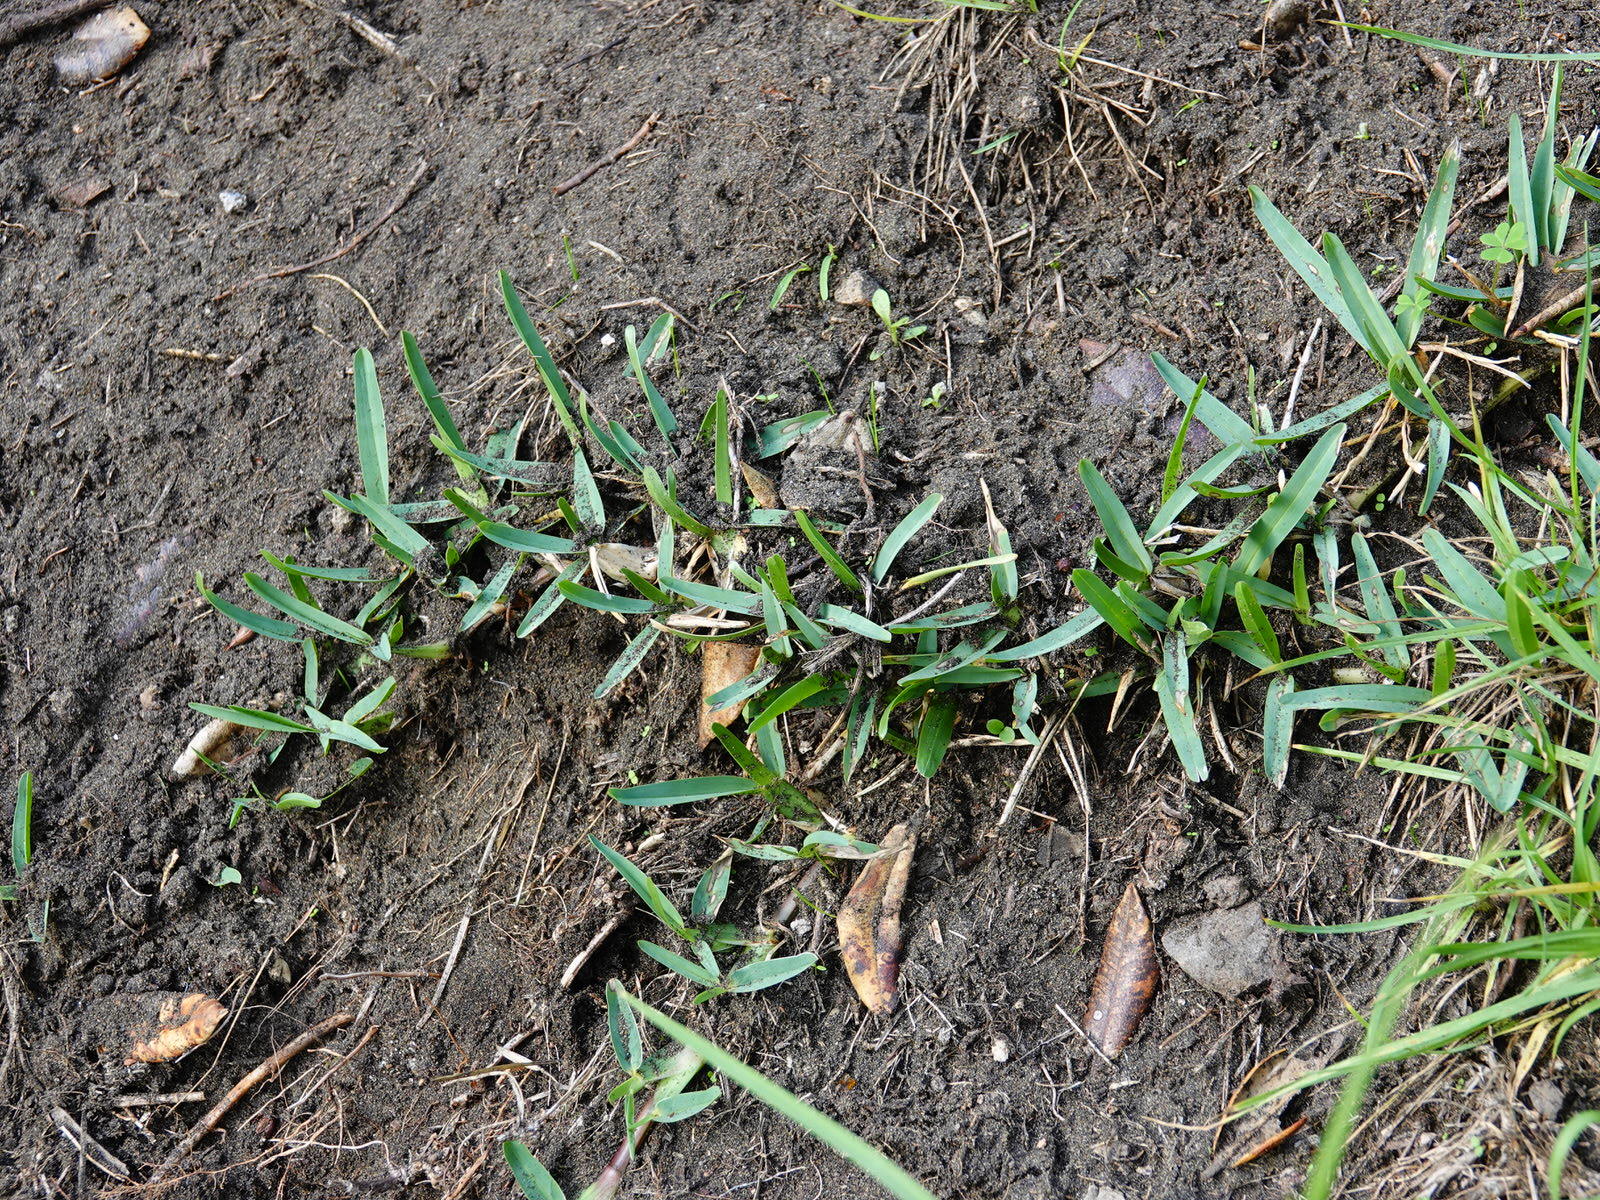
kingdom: Plantae
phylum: Tracheophyta
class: Liliopsida
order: Poales
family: Poaceae
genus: Stenotaphrum
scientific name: Stenotaphrum secundatum
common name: St. augustine grass
